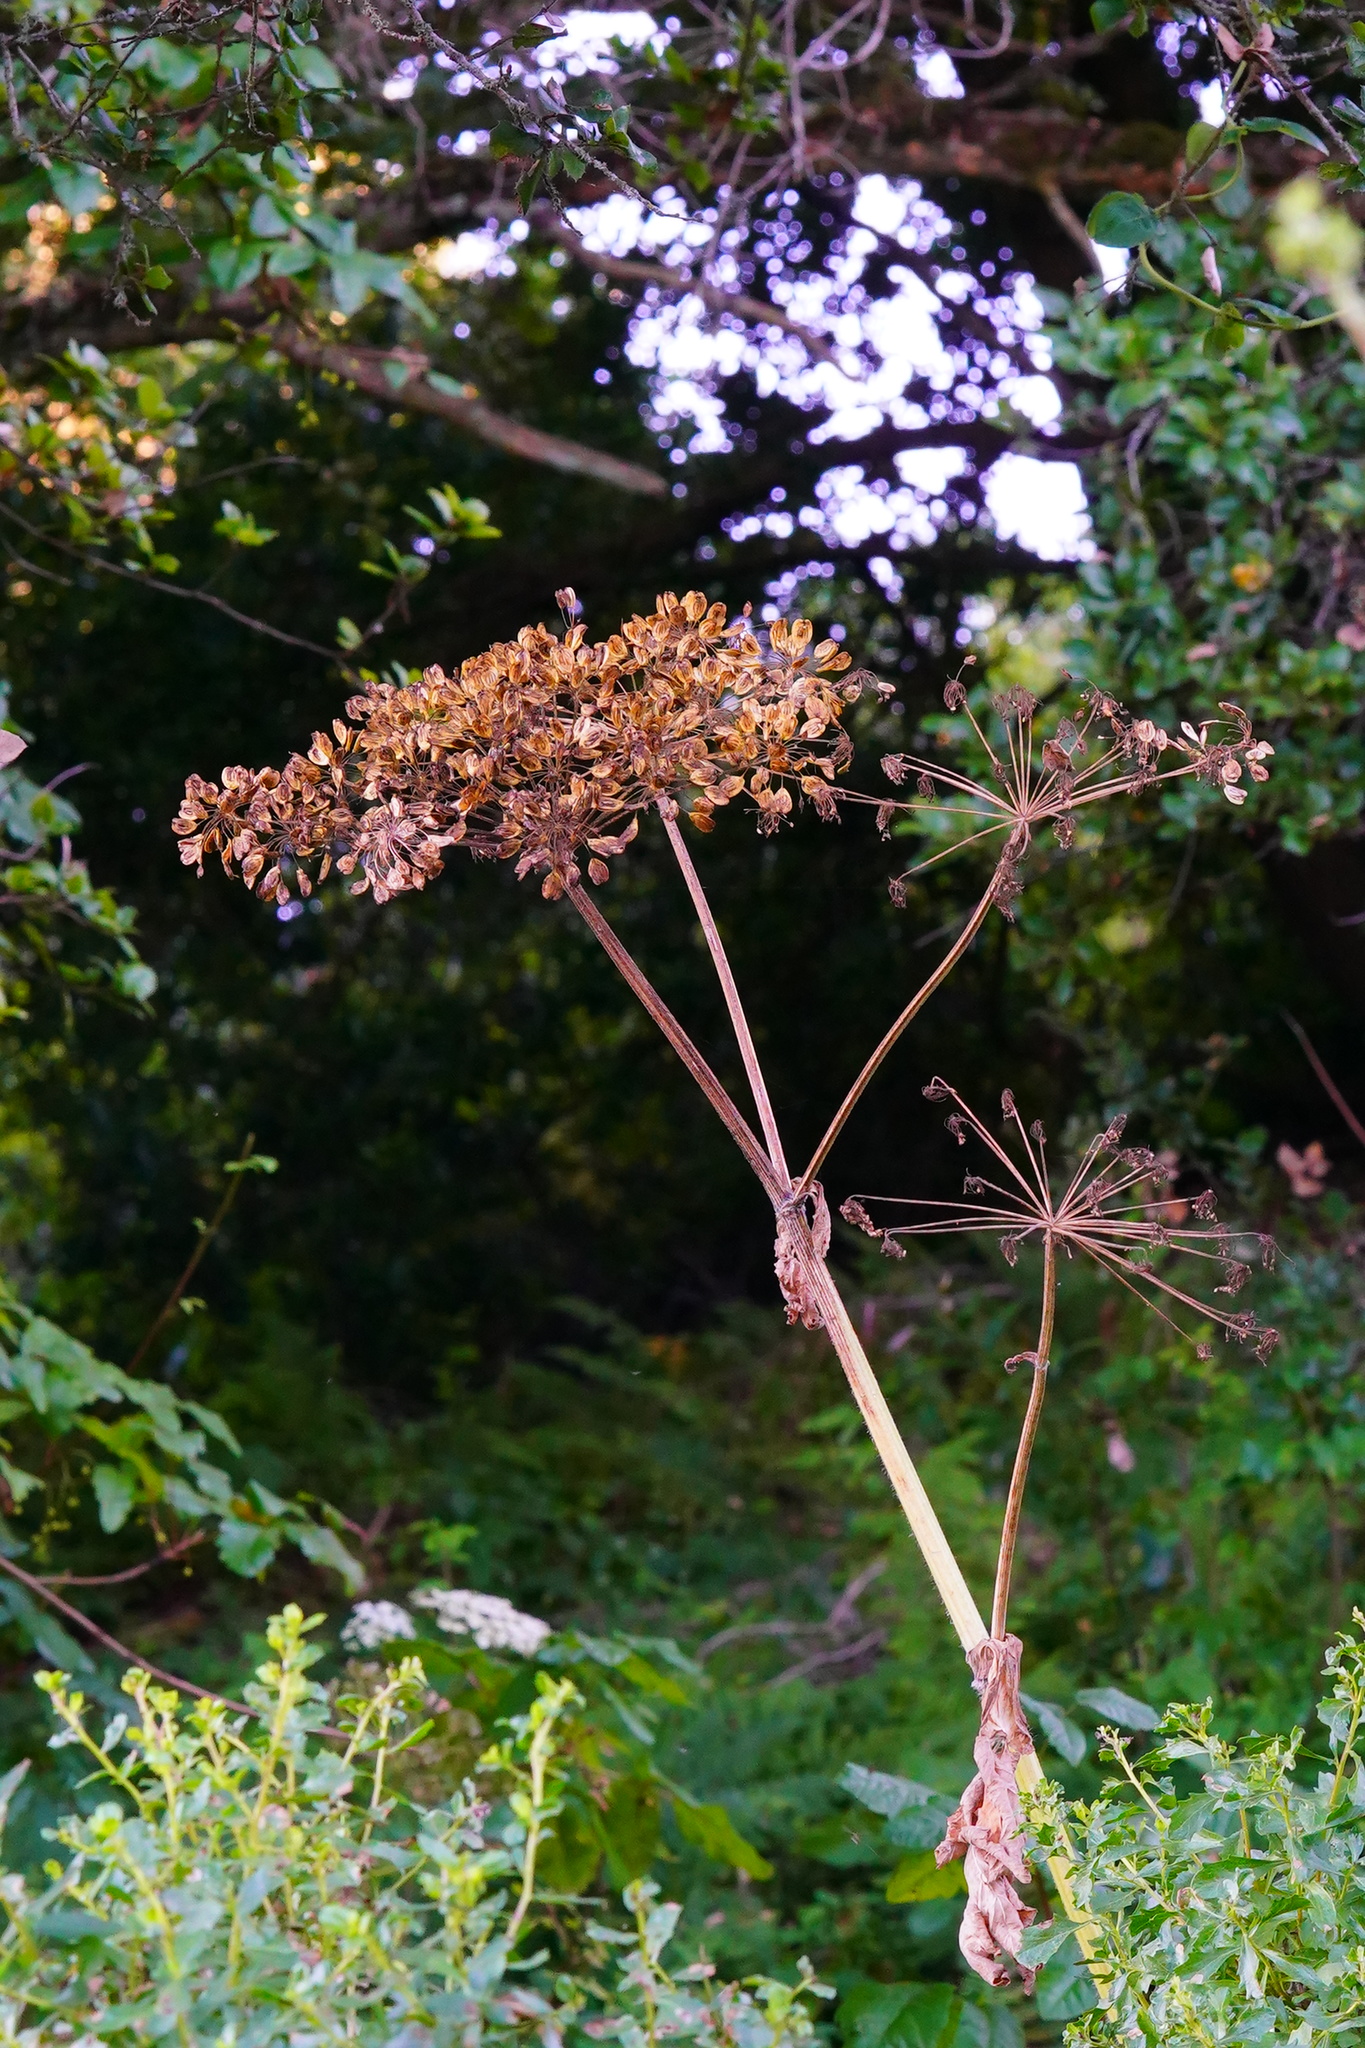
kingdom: Plantae
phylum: Tracheophyta
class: Magnoliopsida
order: Apiales
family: Apiaceae
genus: Heracleum
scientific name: Heracleum maximum
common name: American cow parsnip
